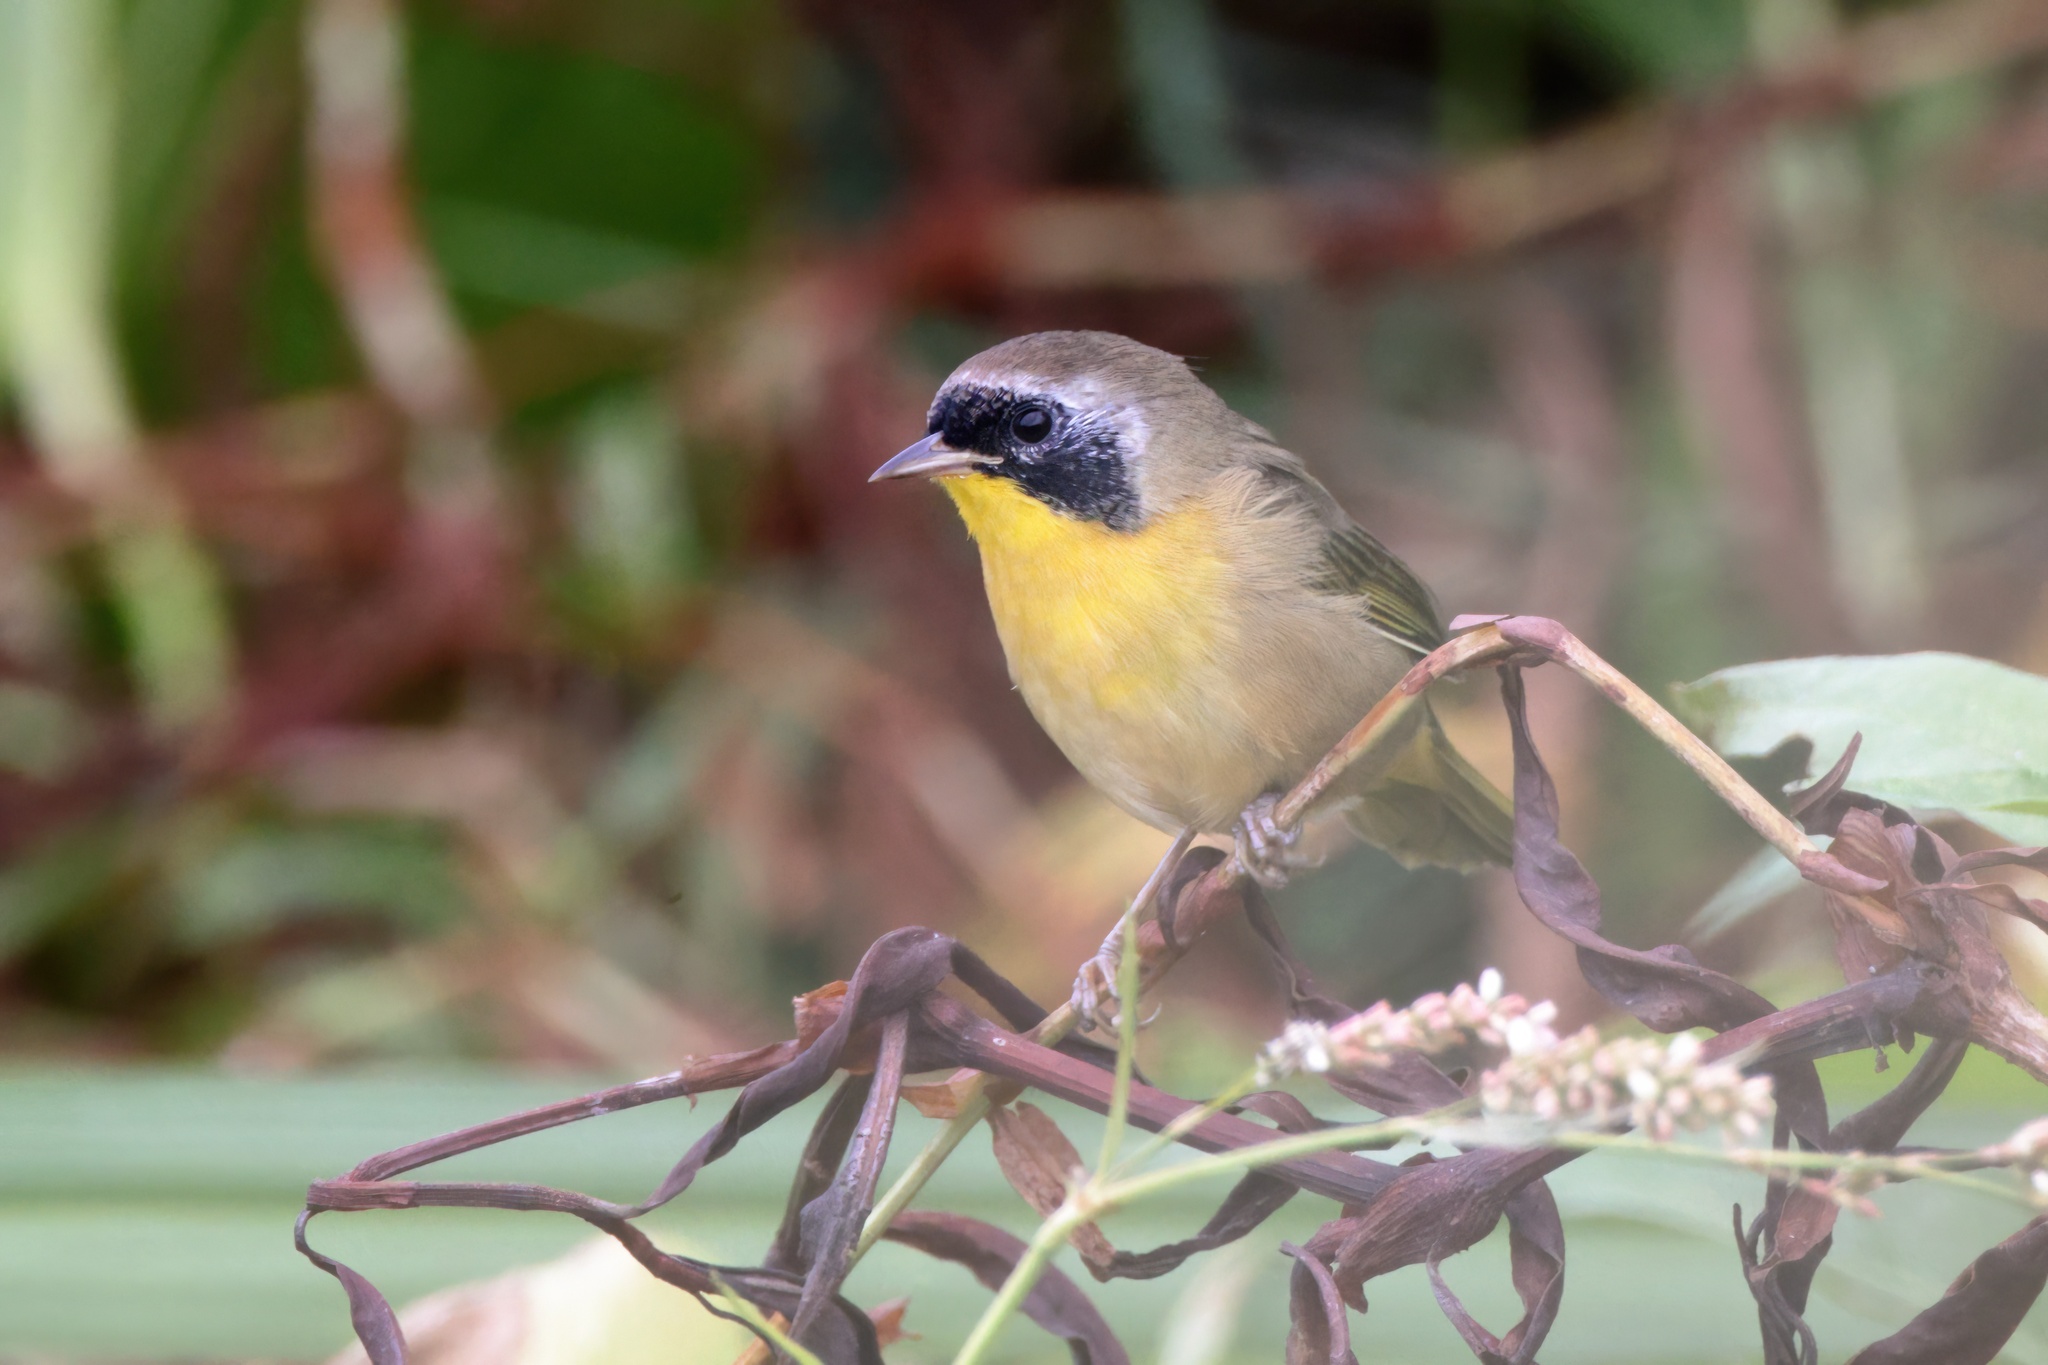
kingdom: Animalia
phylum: Chordata
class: Aves
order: Passeriformes
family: Parulidae
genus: Geothlypis
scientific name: Geothlypis trichas
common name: Common yellowthroat
